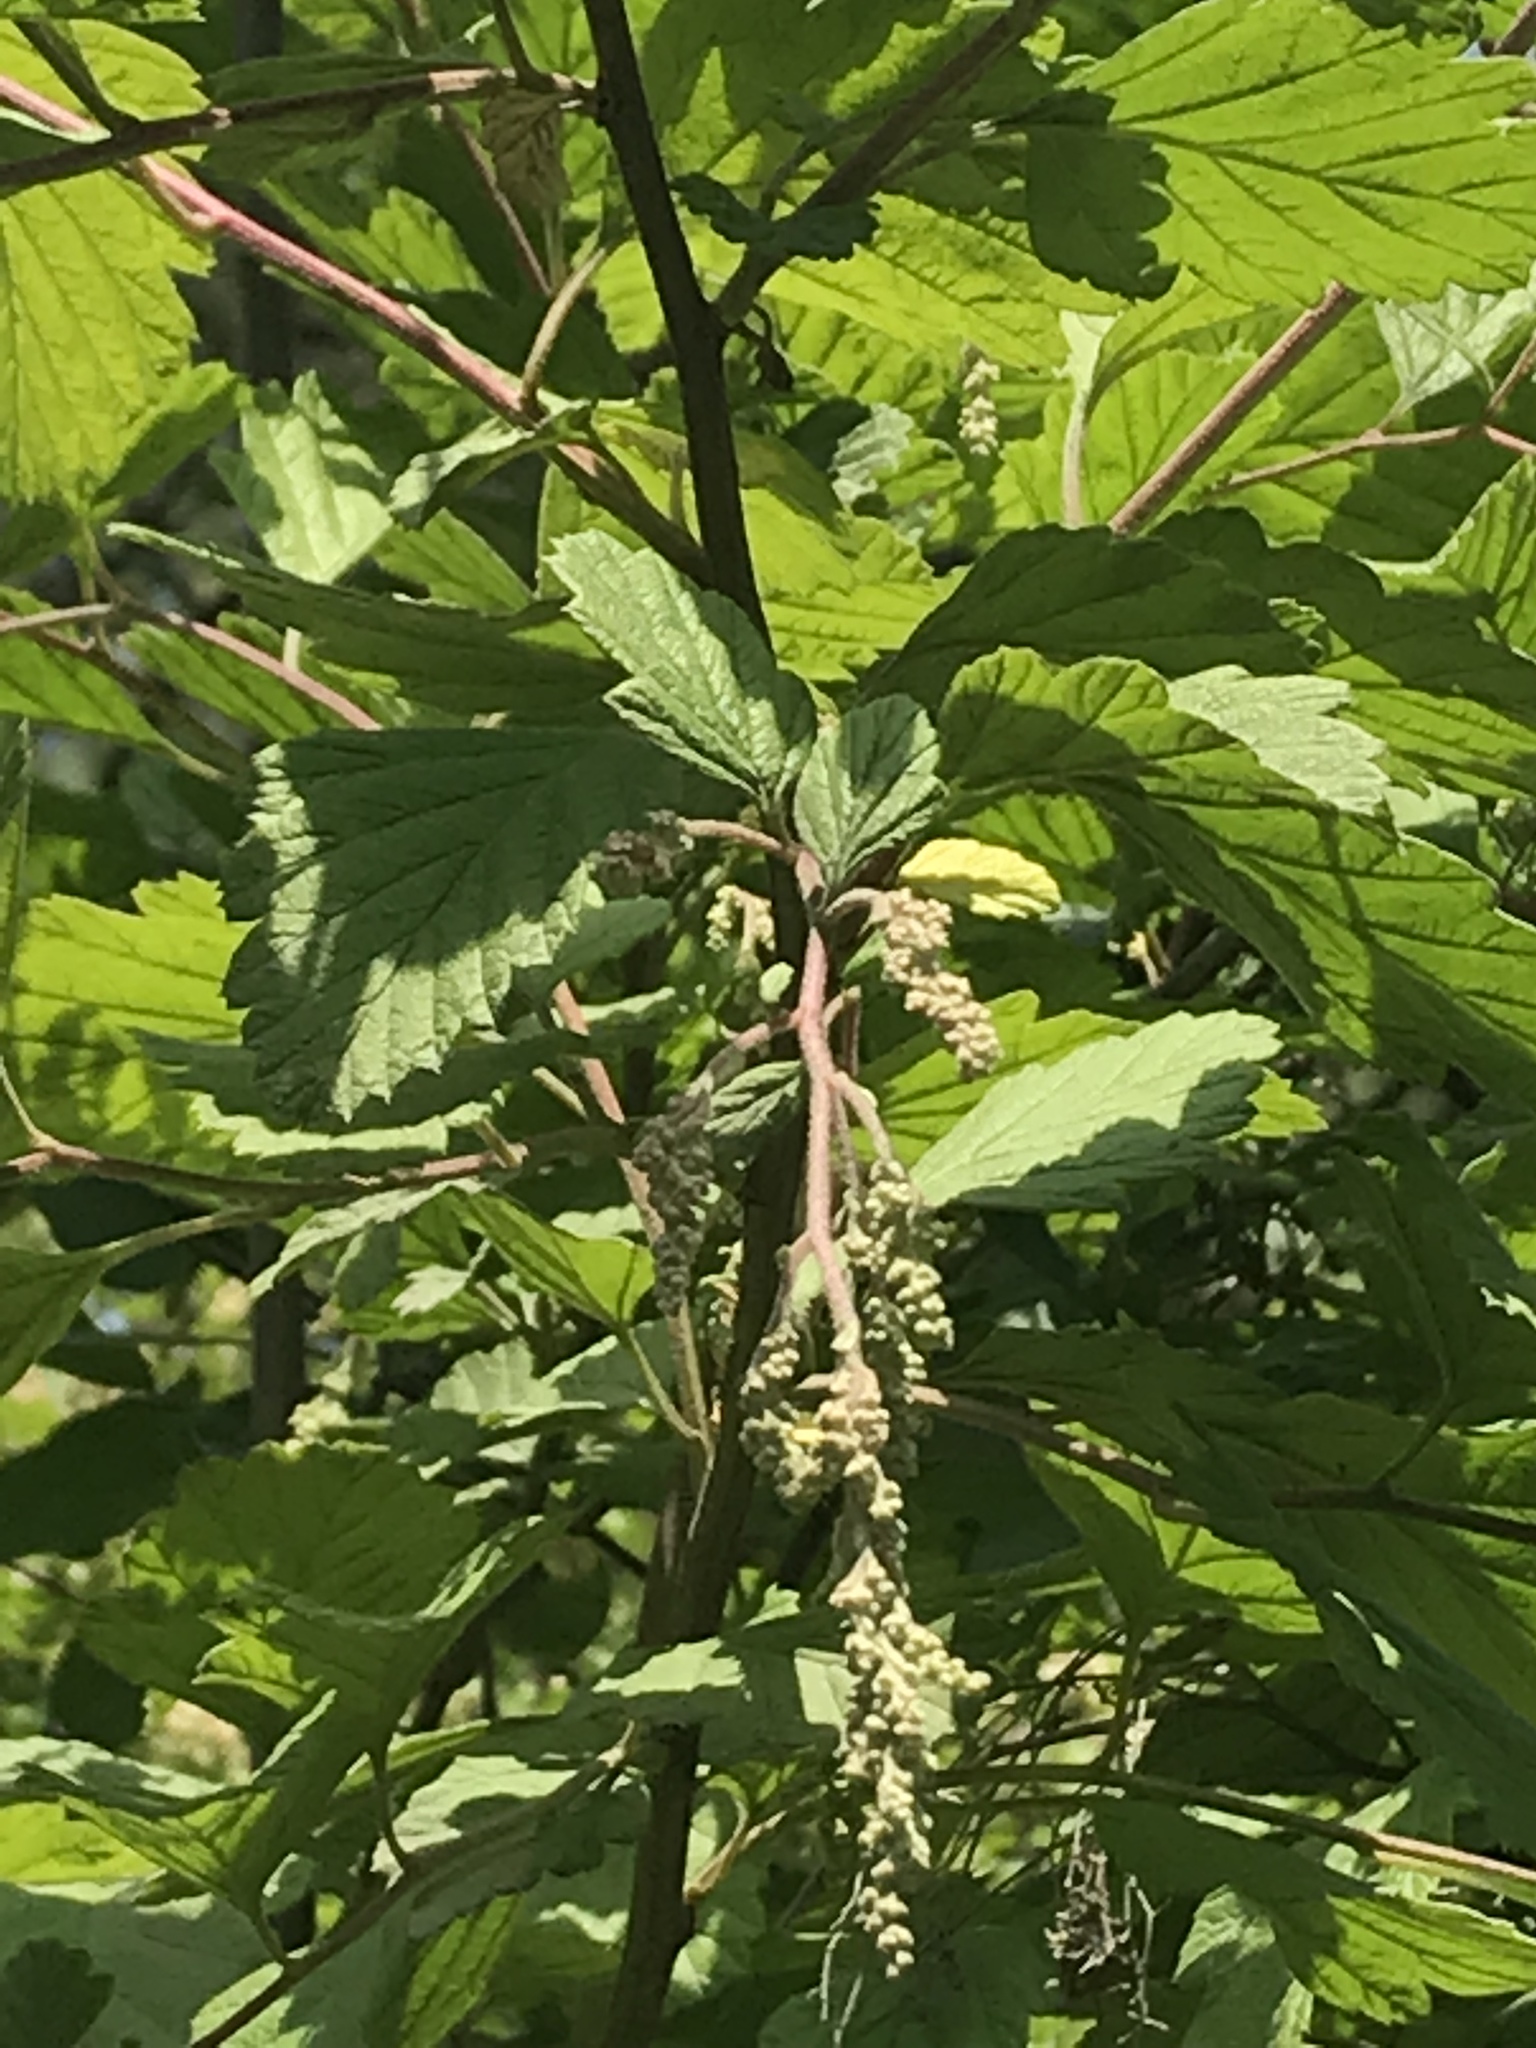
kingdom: Plantae
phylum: Tracheophyta
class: Magnoliopsida
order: Rosales
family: Rosaceae
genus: Holodiscus
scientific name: Holodiscus discolor
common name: Oceanspray
